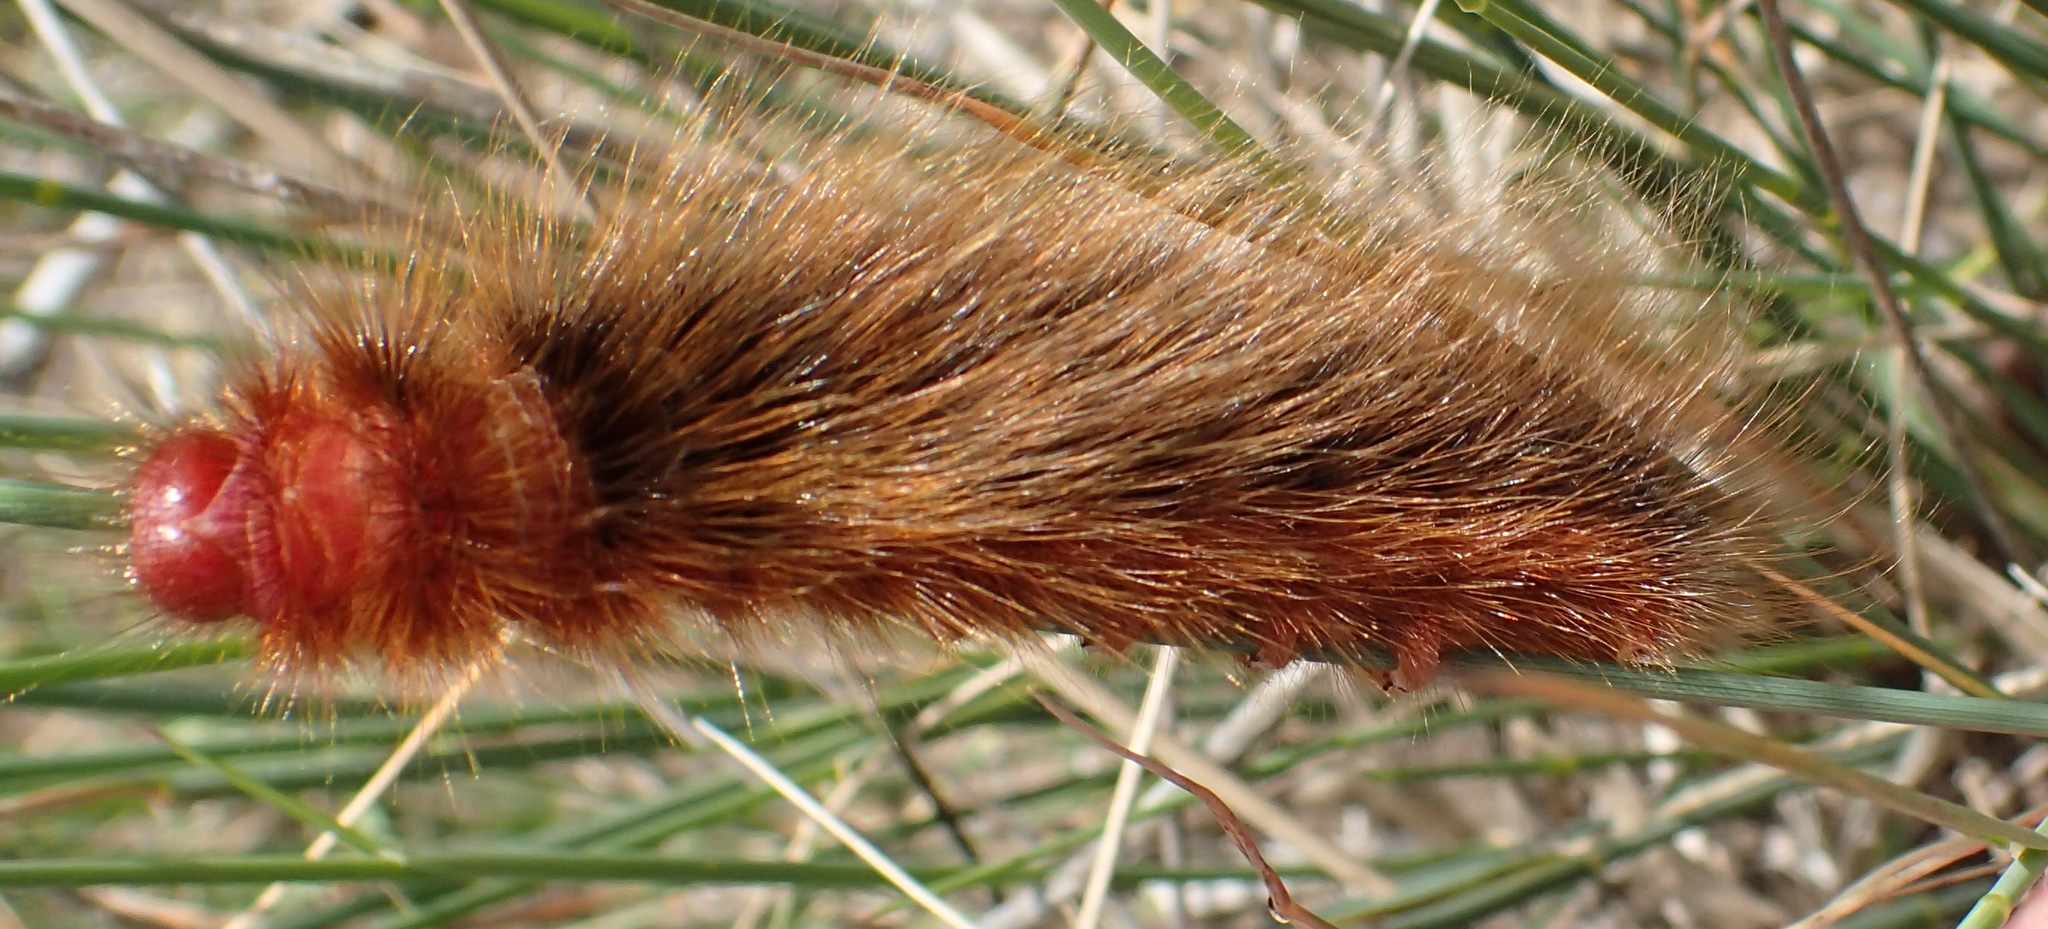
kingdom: Animalia
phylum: Arthropoda
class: Insecta
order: Lepidoptera
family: Eupterotidae
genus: Phyllalia
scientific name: Phyllalia patens
